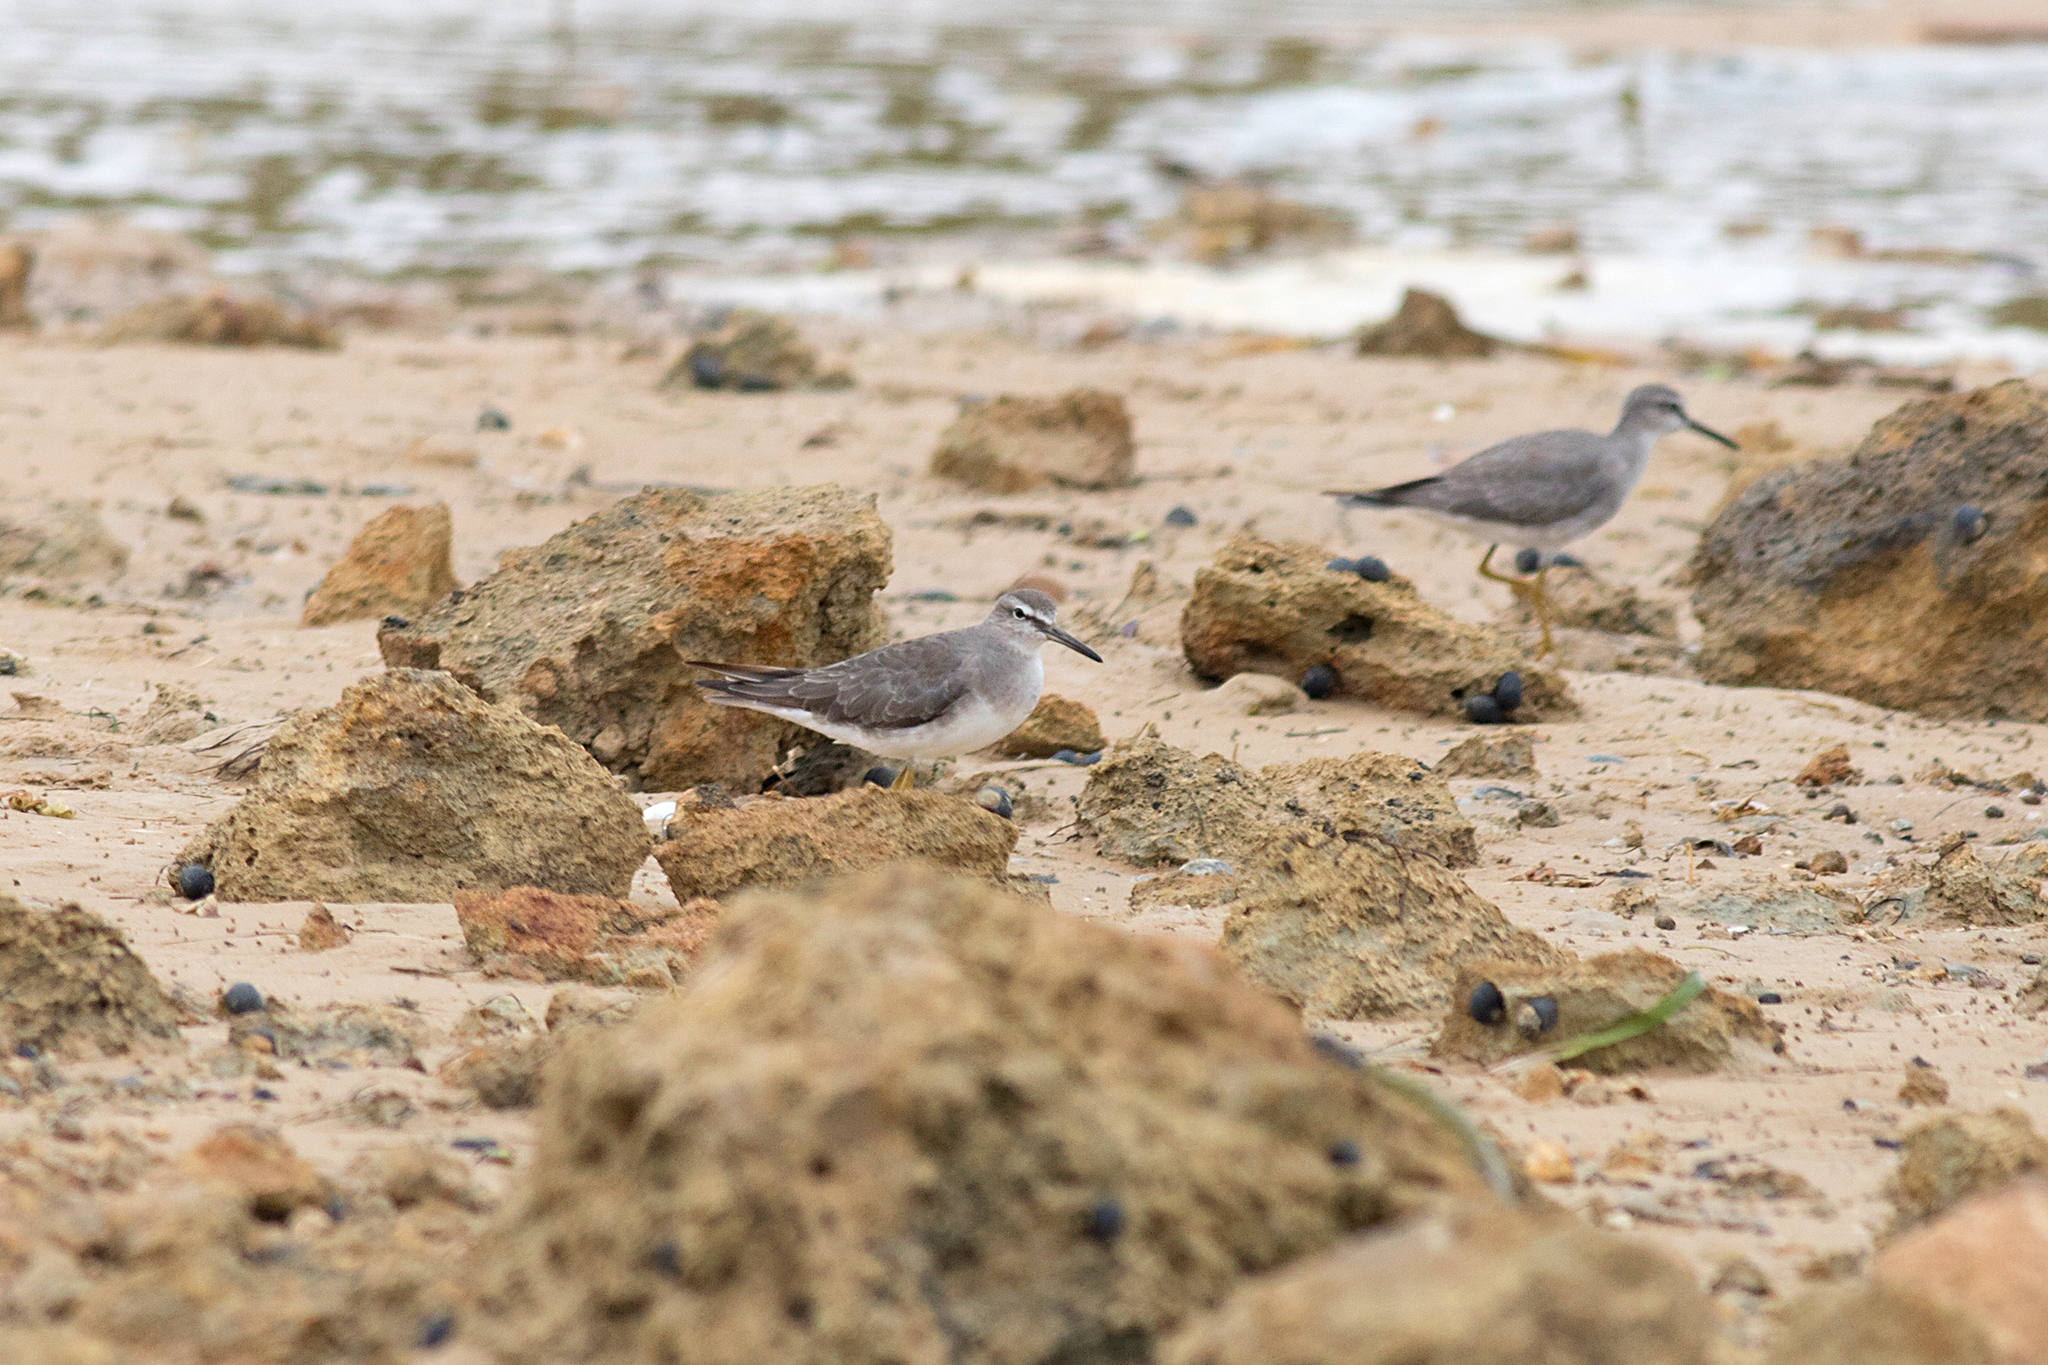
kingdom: Animalia
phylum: Chordata
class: Aves
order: Charadriiformes
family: Scolopacidae
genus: Tringa
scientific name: Tringa brevipes
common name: Grey-tailed tattler
